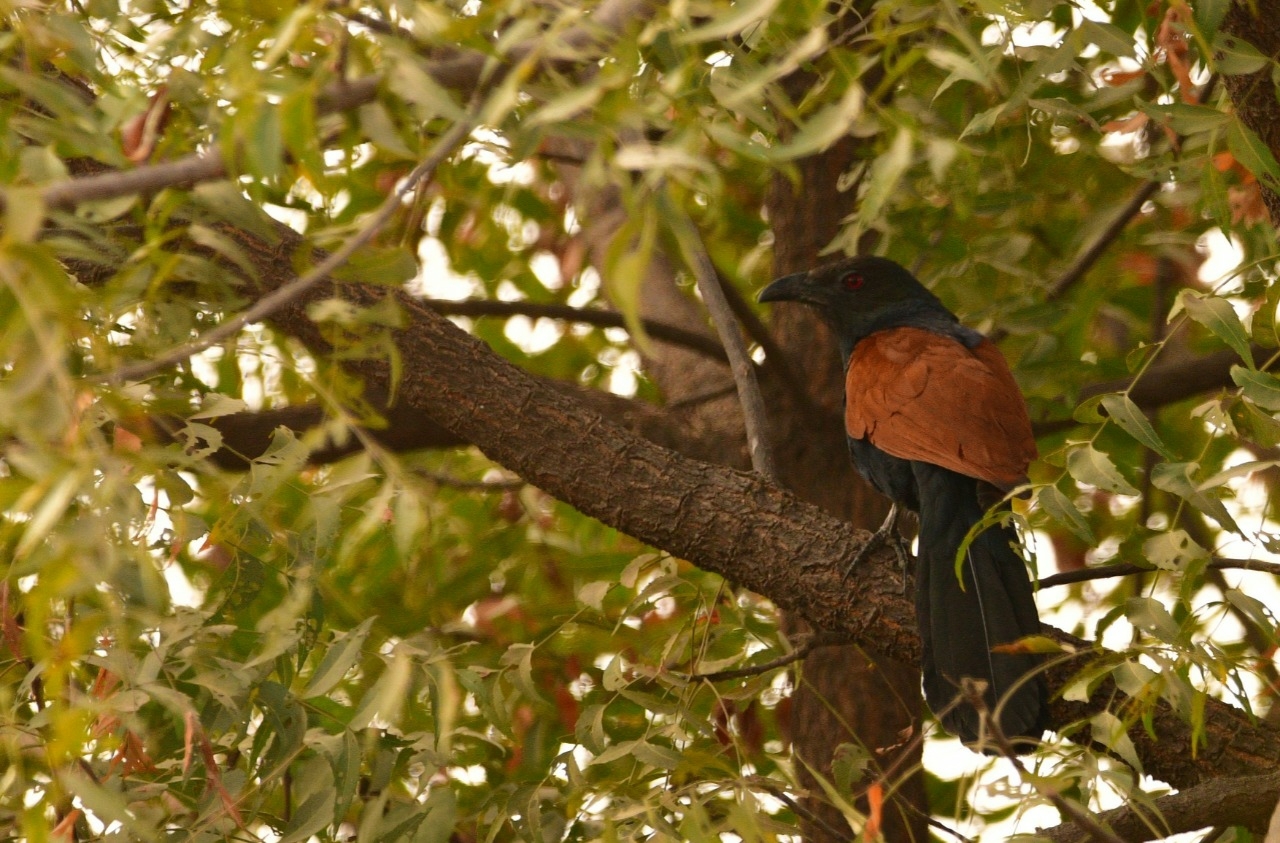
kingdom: Animalia
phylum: Chordata
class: Aves
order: Cuculiformes
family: Cuculidae
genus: Centropus
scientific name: Centropus sinensis
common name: Greater coucal
